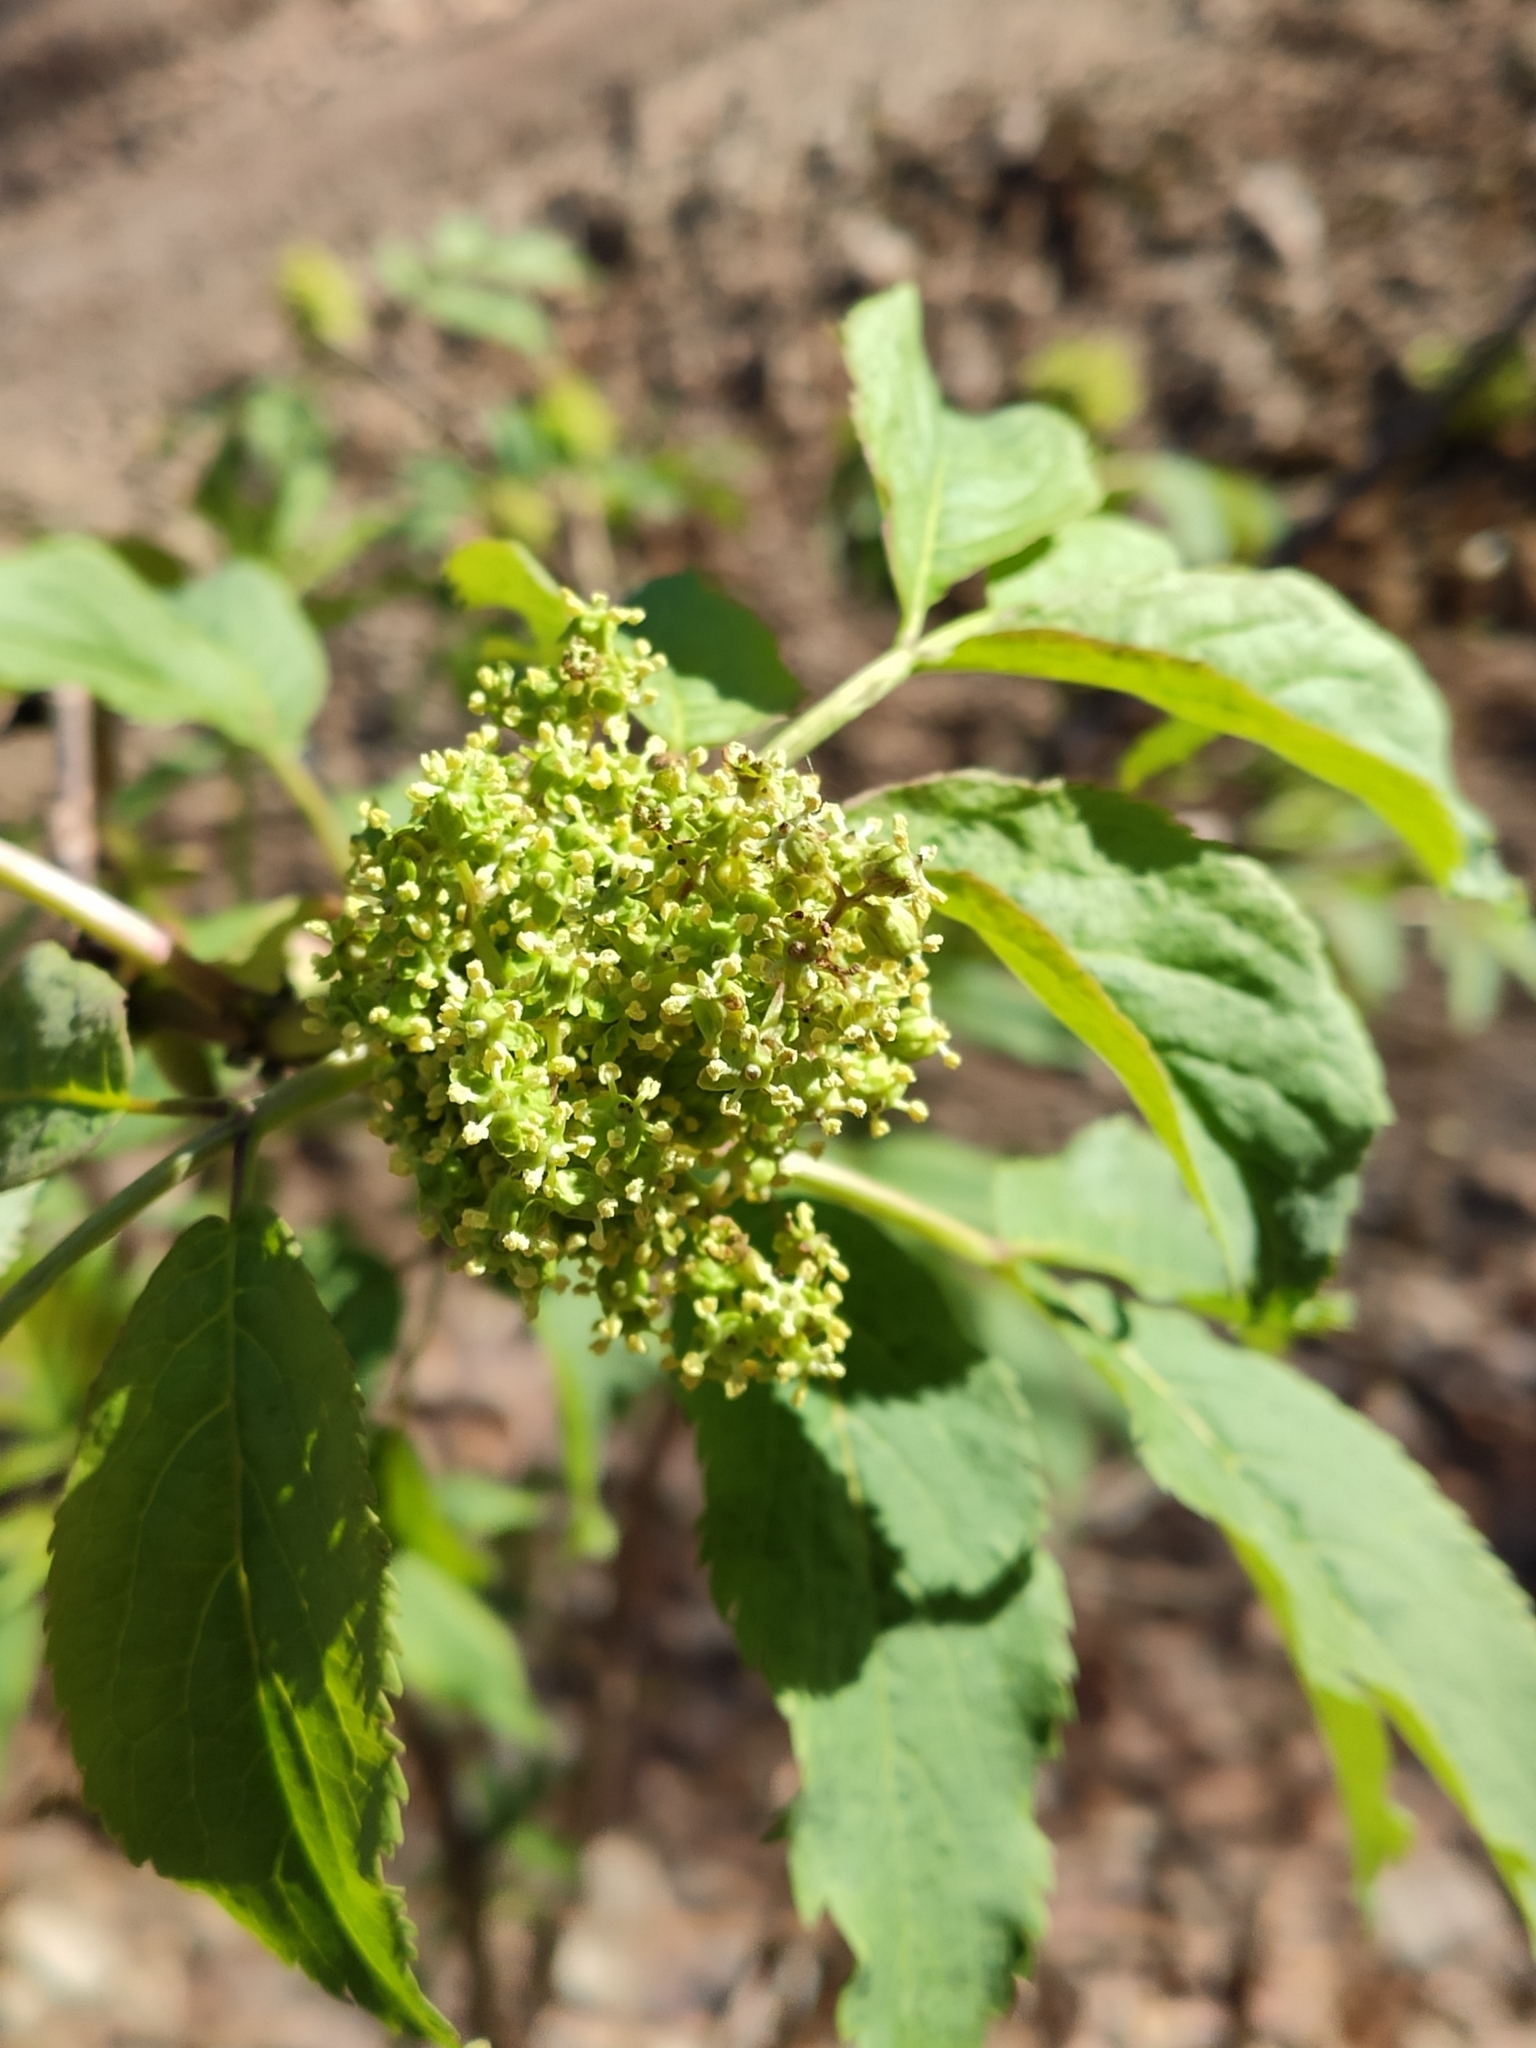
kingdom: Plantae
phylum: Tracheophyta
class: Magnoliopsida
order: Dipsacales
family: Viburnaceae
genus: Sambucus
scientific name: Sambucus racemosa
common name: Red-berried elder
